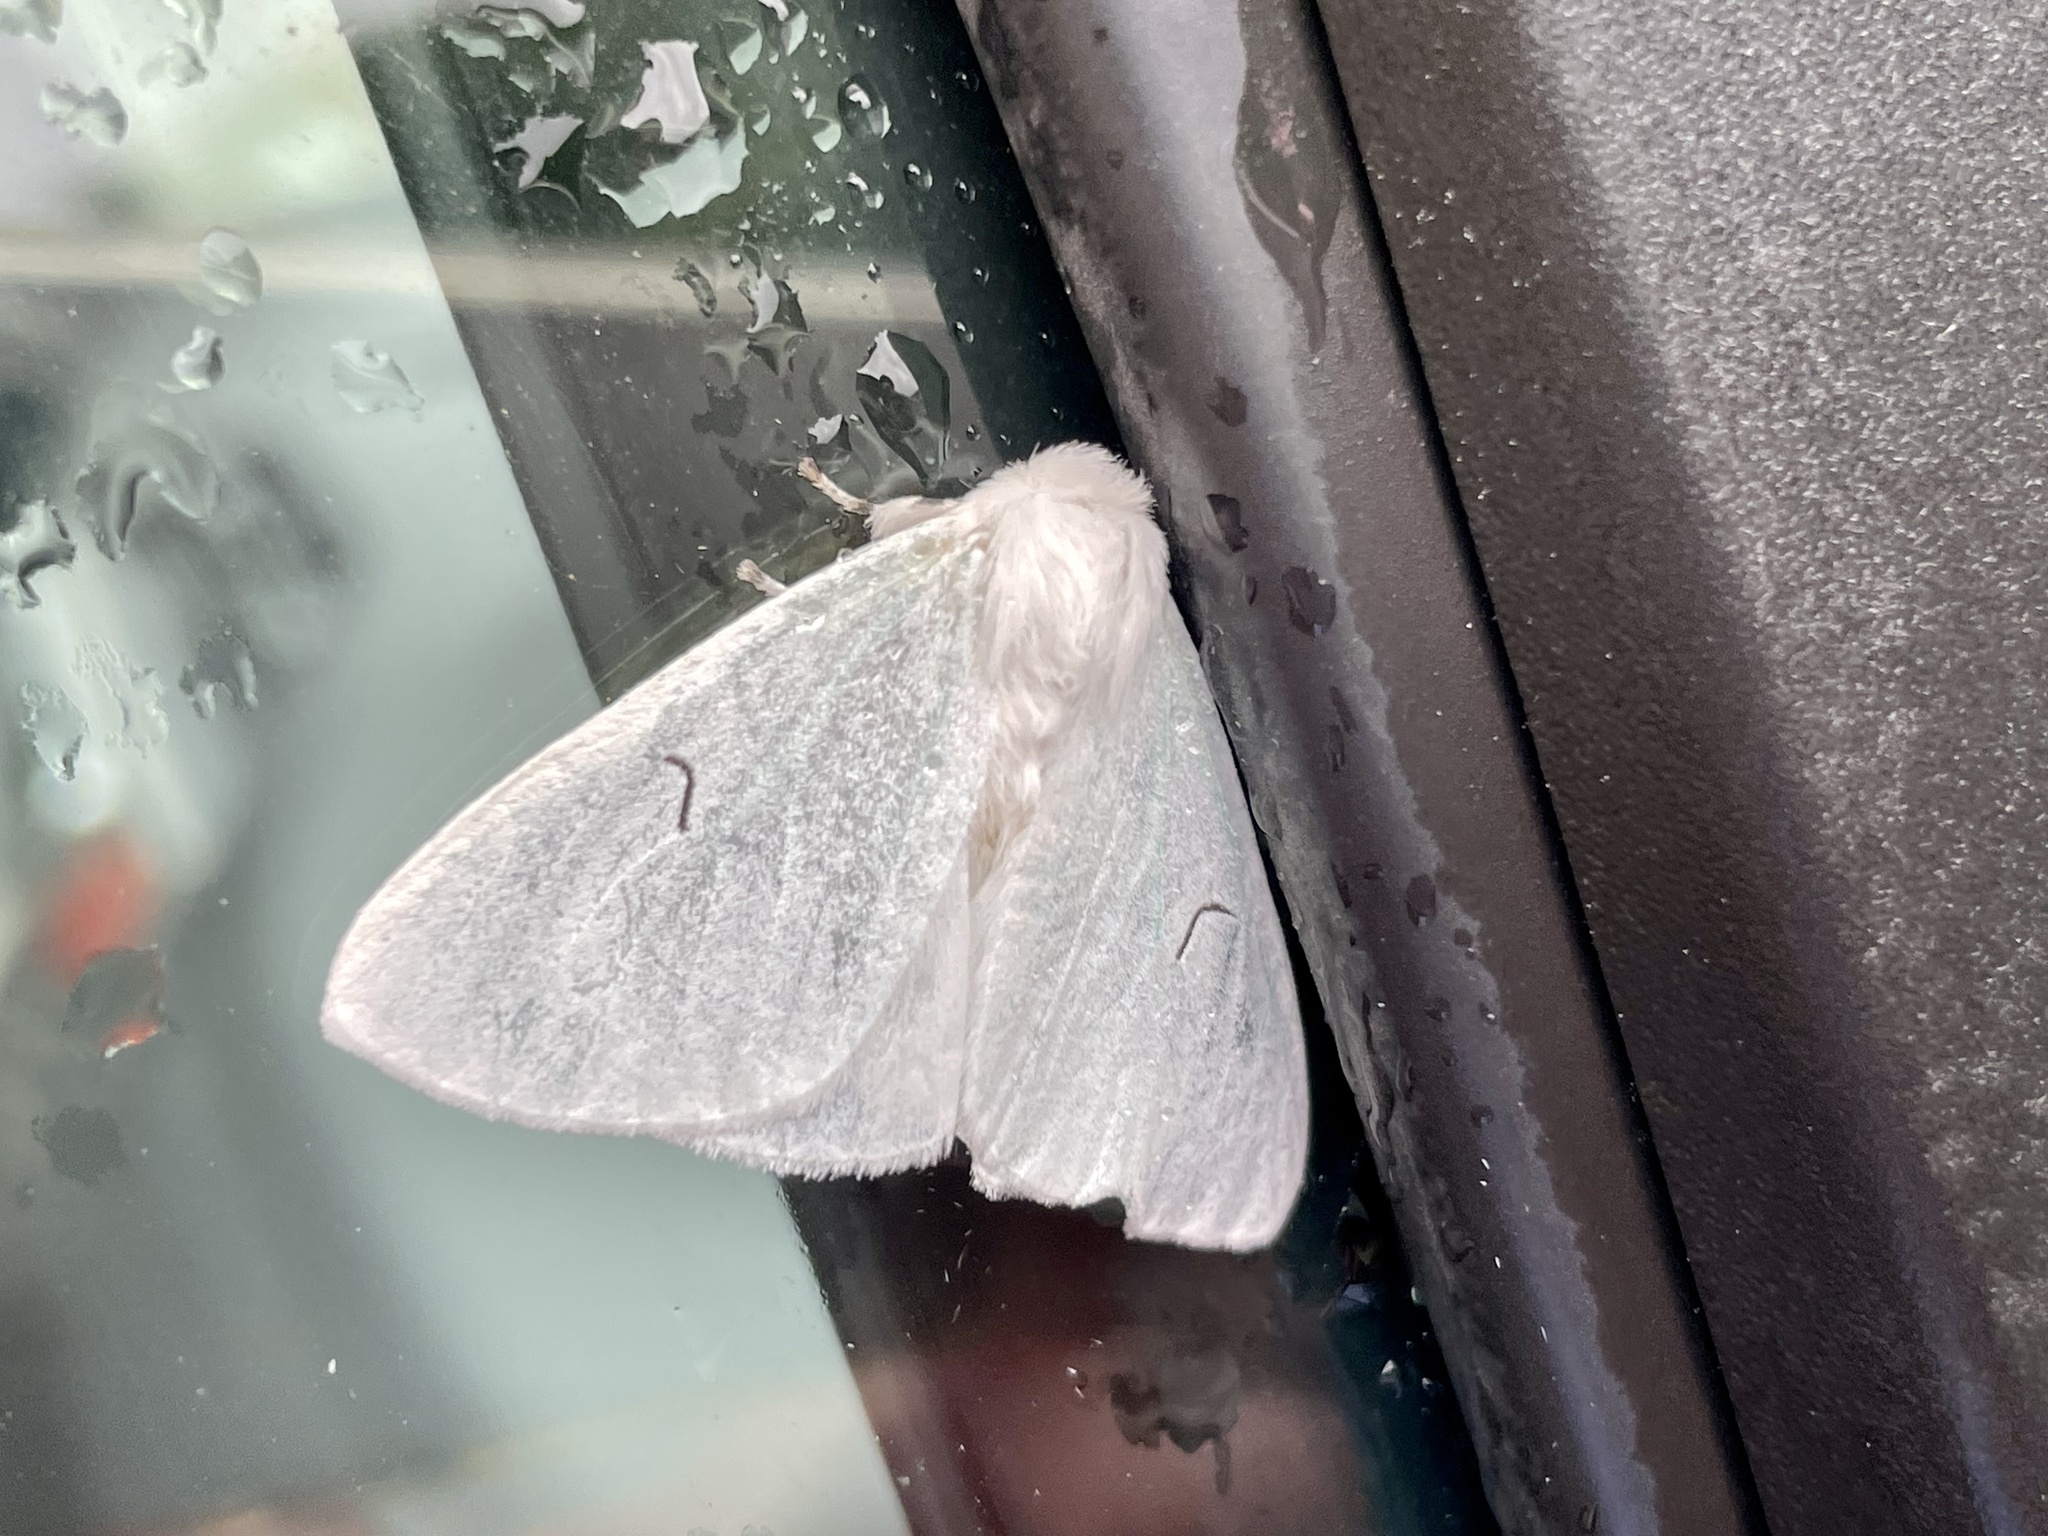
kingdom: Animalia
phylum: Arthropoda
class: Insecta
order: Lepidoptera
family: Erebidae
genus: Arctornis
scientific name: Arctornis l-nigrum
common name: Black v moth
